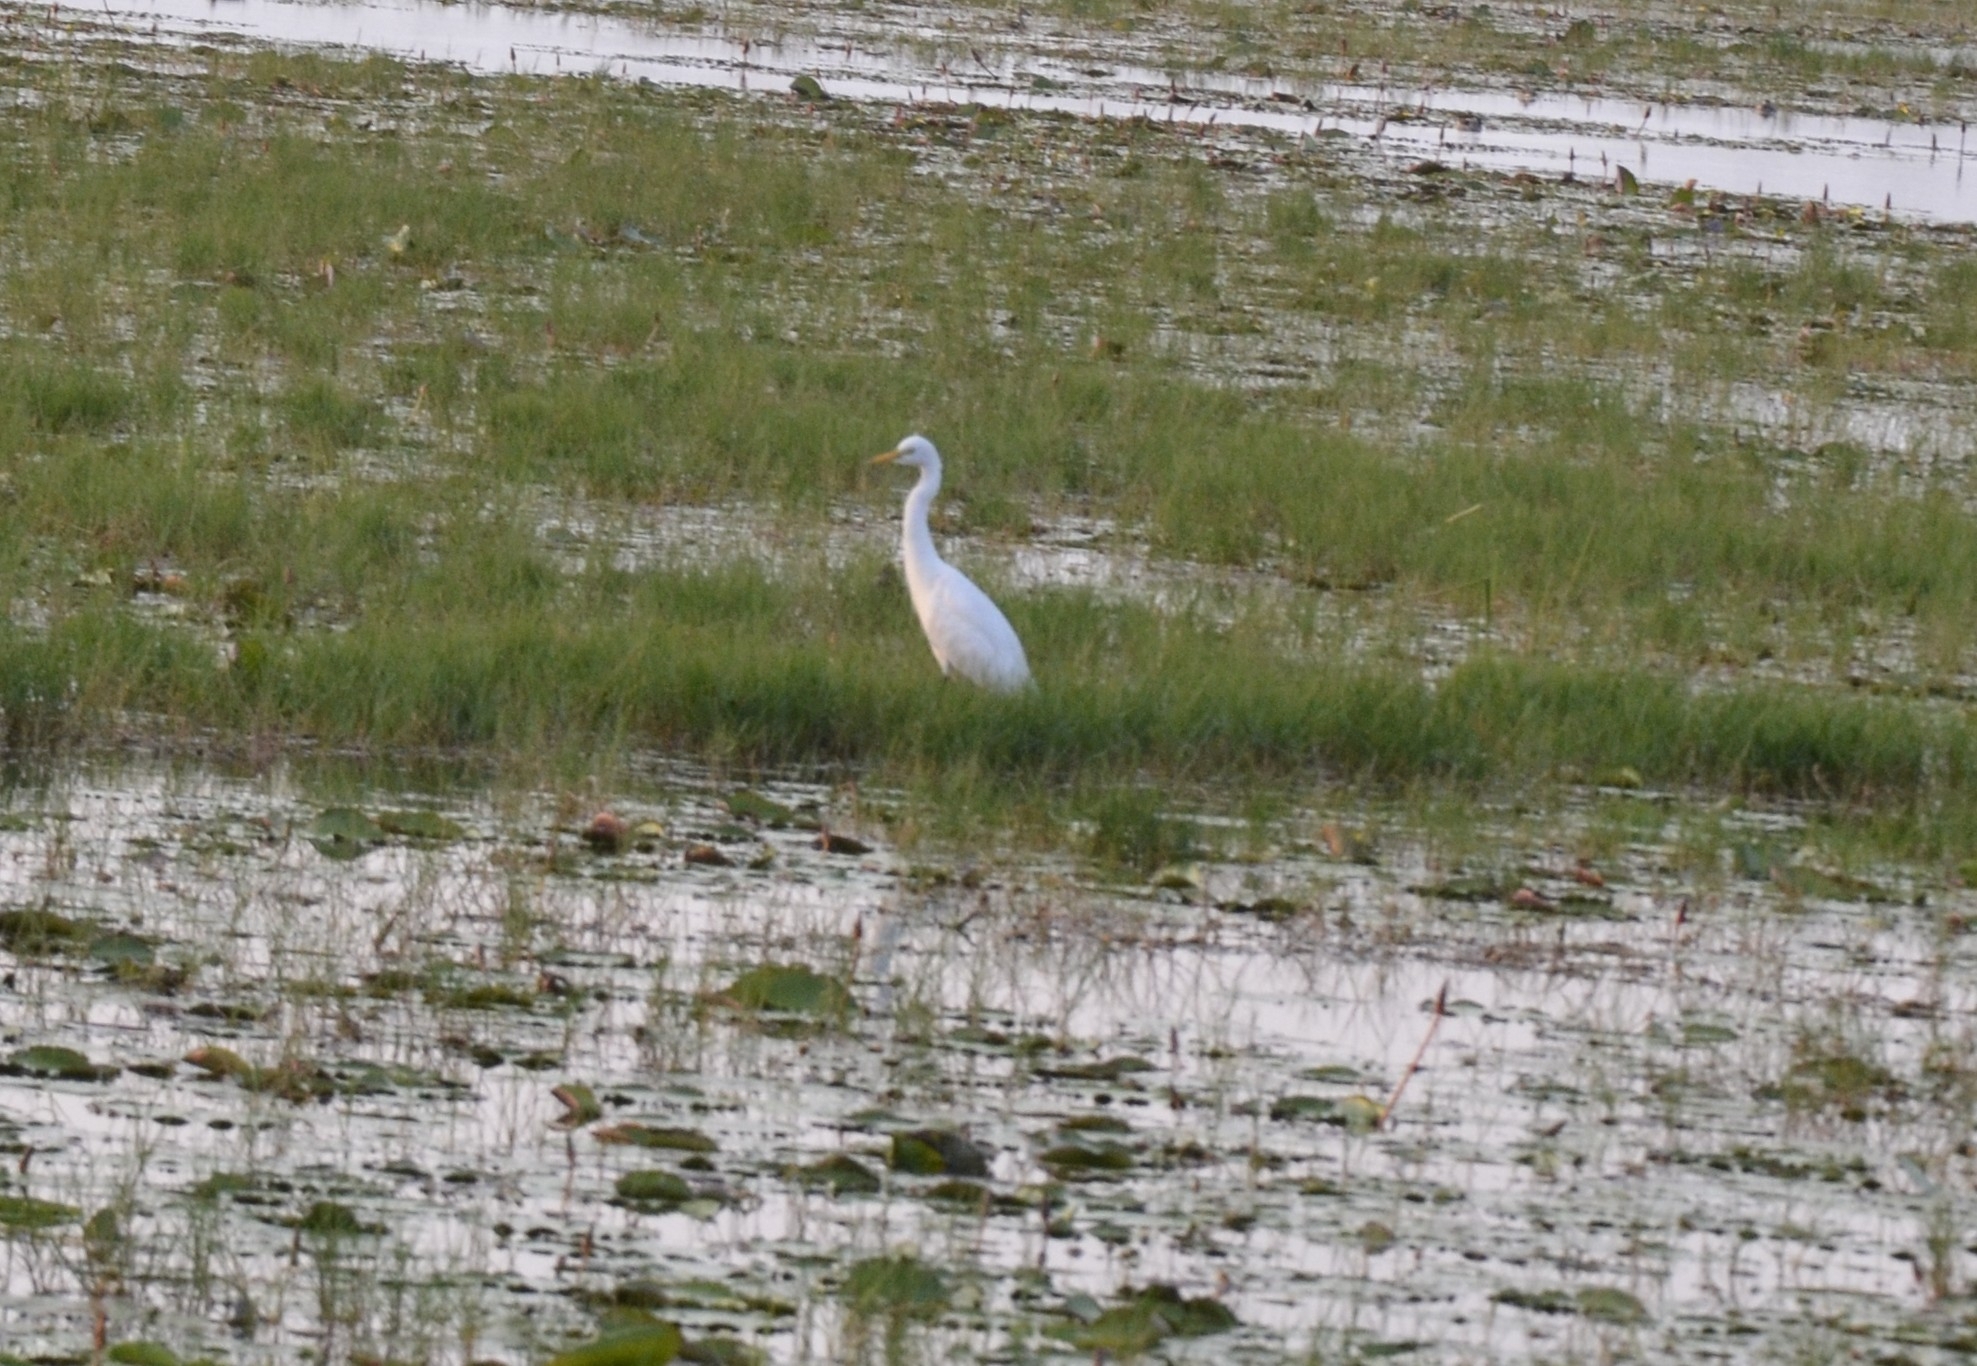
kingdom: Animalia
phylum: Chordata
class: Aves
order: Pelecaniformes
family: Ardeidae
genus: Egretta
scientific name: Egretta intermedia
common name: Intermediate egret
